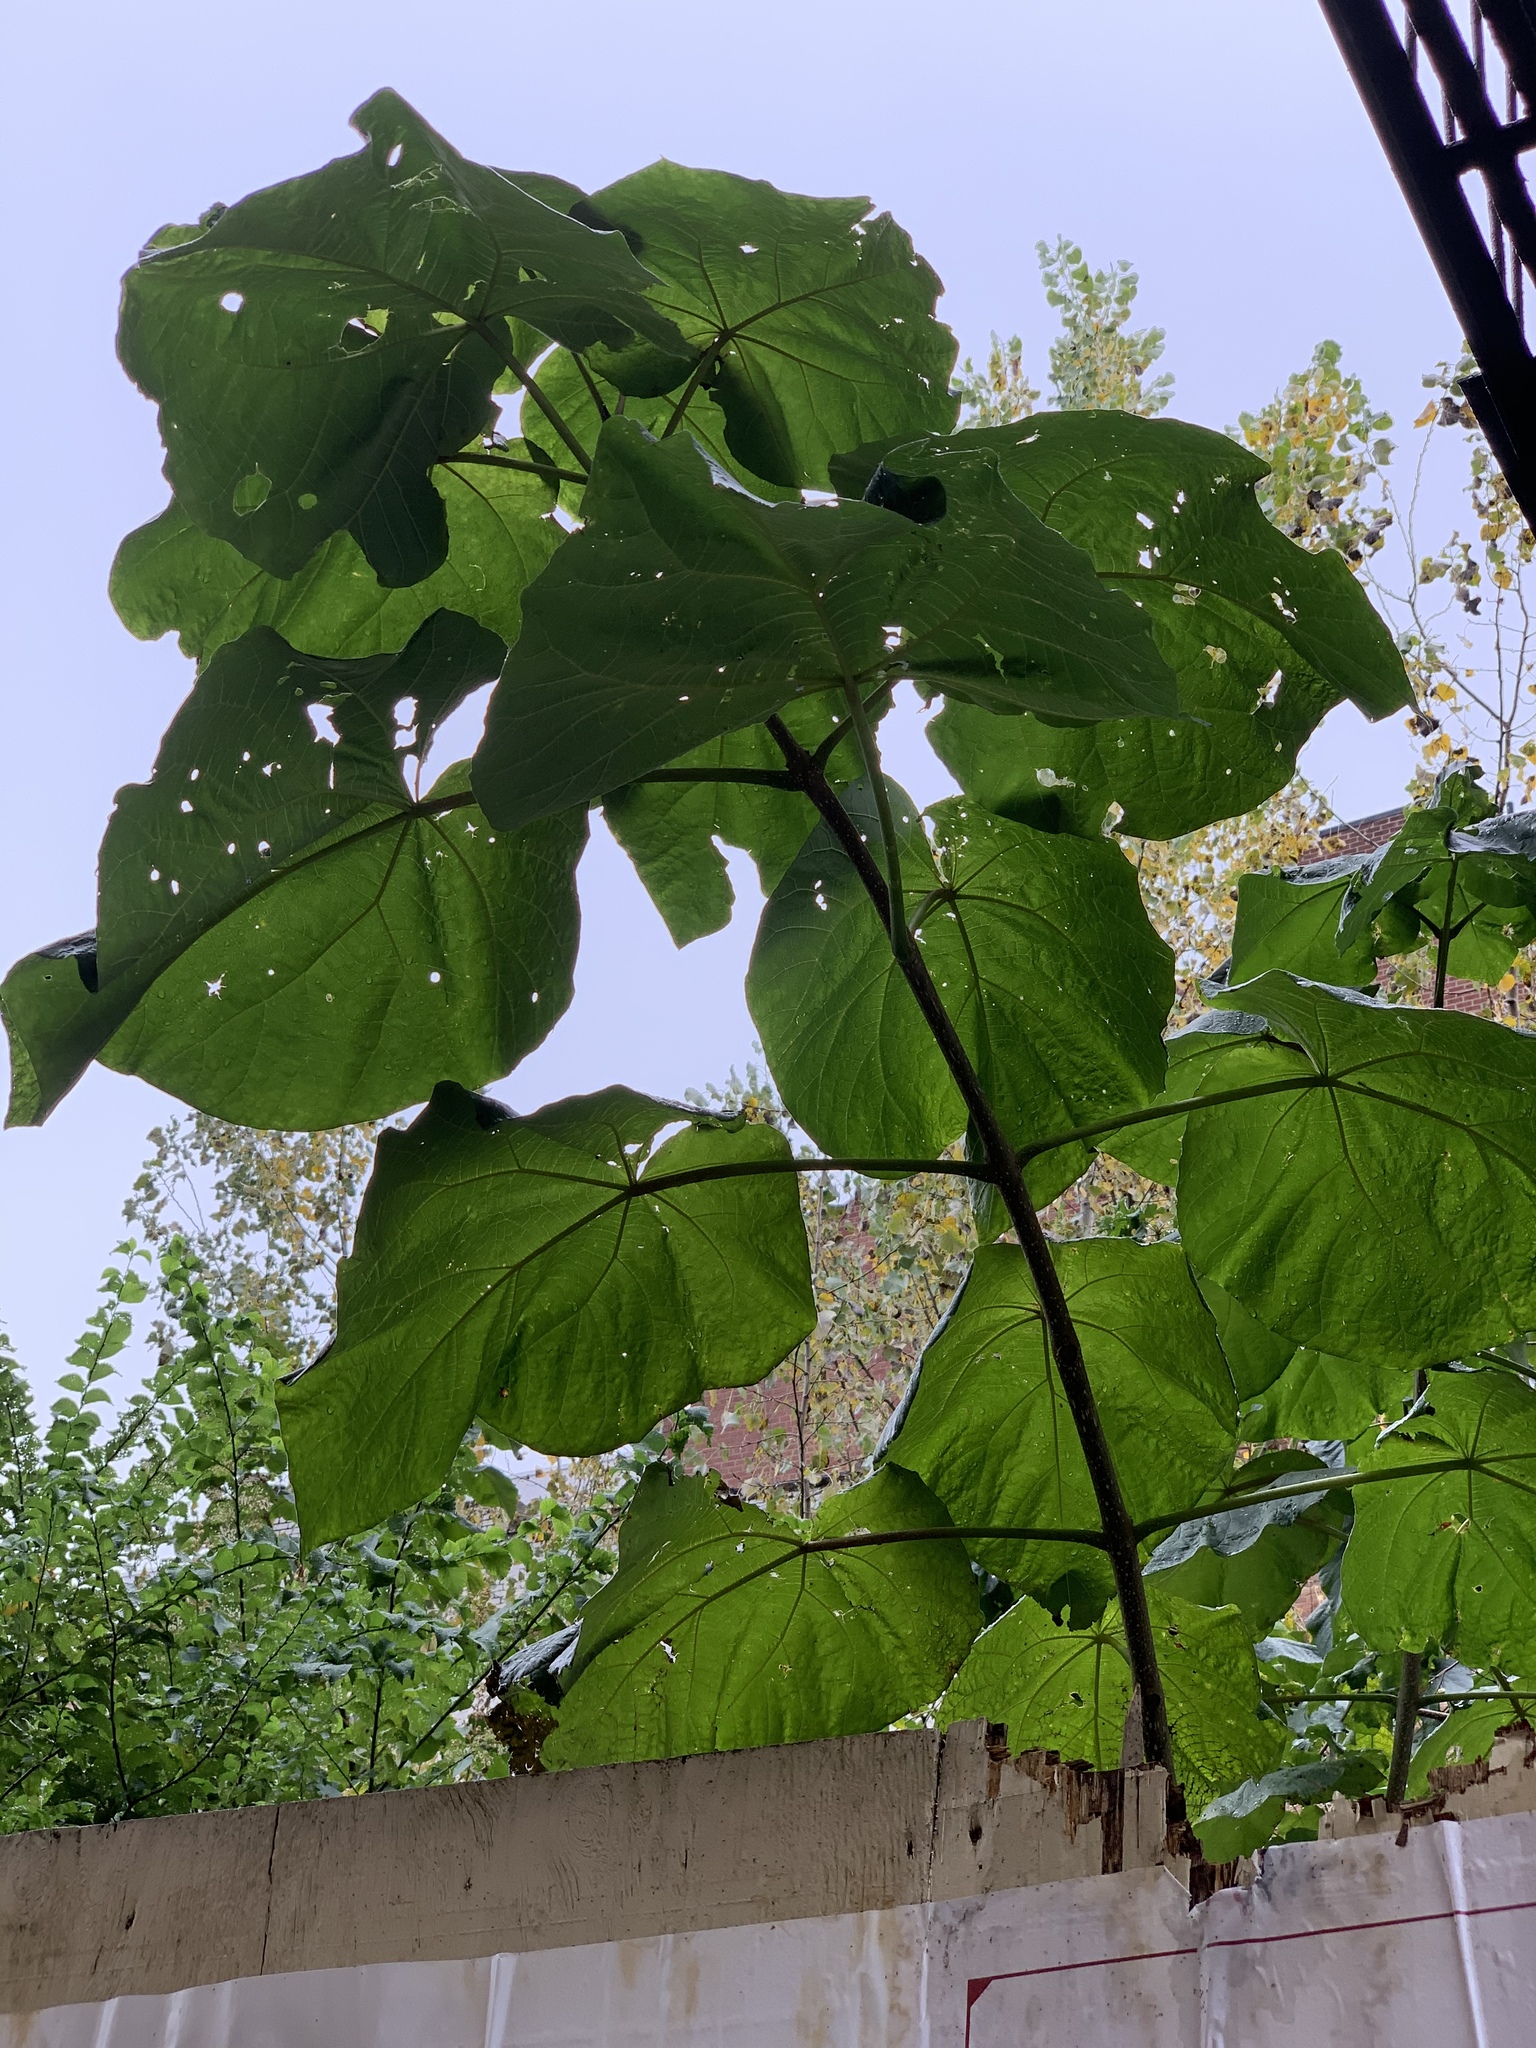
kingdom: Plantae
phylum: Tracheophyta
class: Magnoliopsida
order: Lamiales
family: Paulowniaceae
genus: Paulownia
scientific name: Paulownia tomentosa
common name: Foxglove-tree
